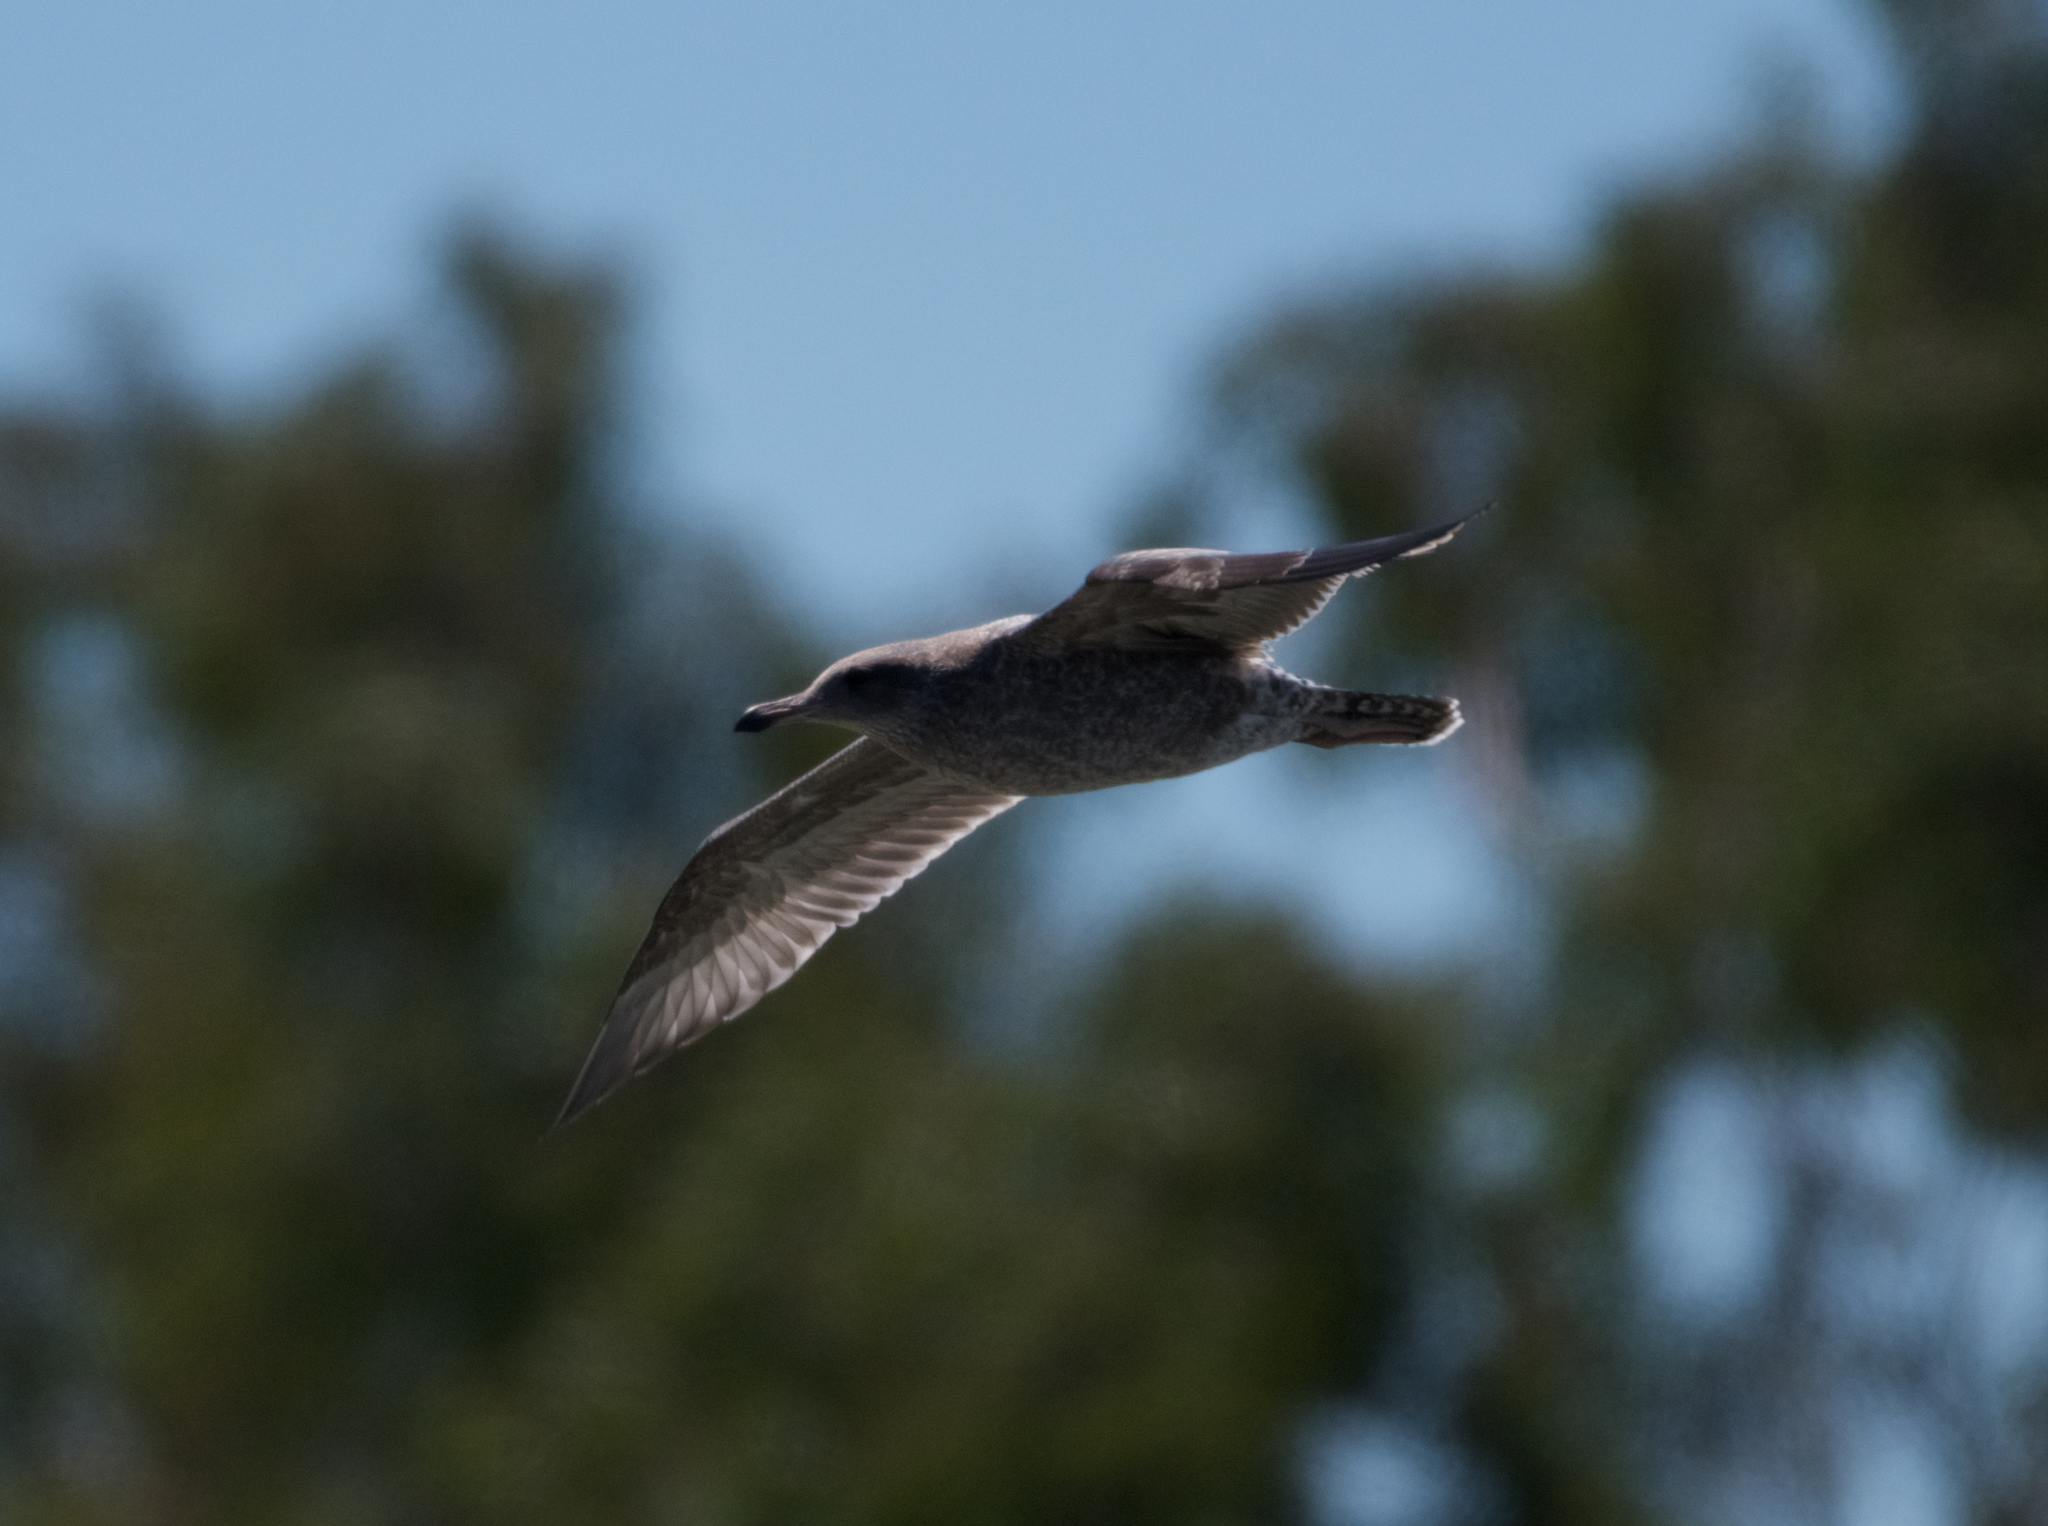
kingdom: Animalia
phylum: Chordata
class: Aves
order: Charadriiformes
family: Laridae
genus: Larus
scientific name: Larus occidentalis
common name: Western gull
